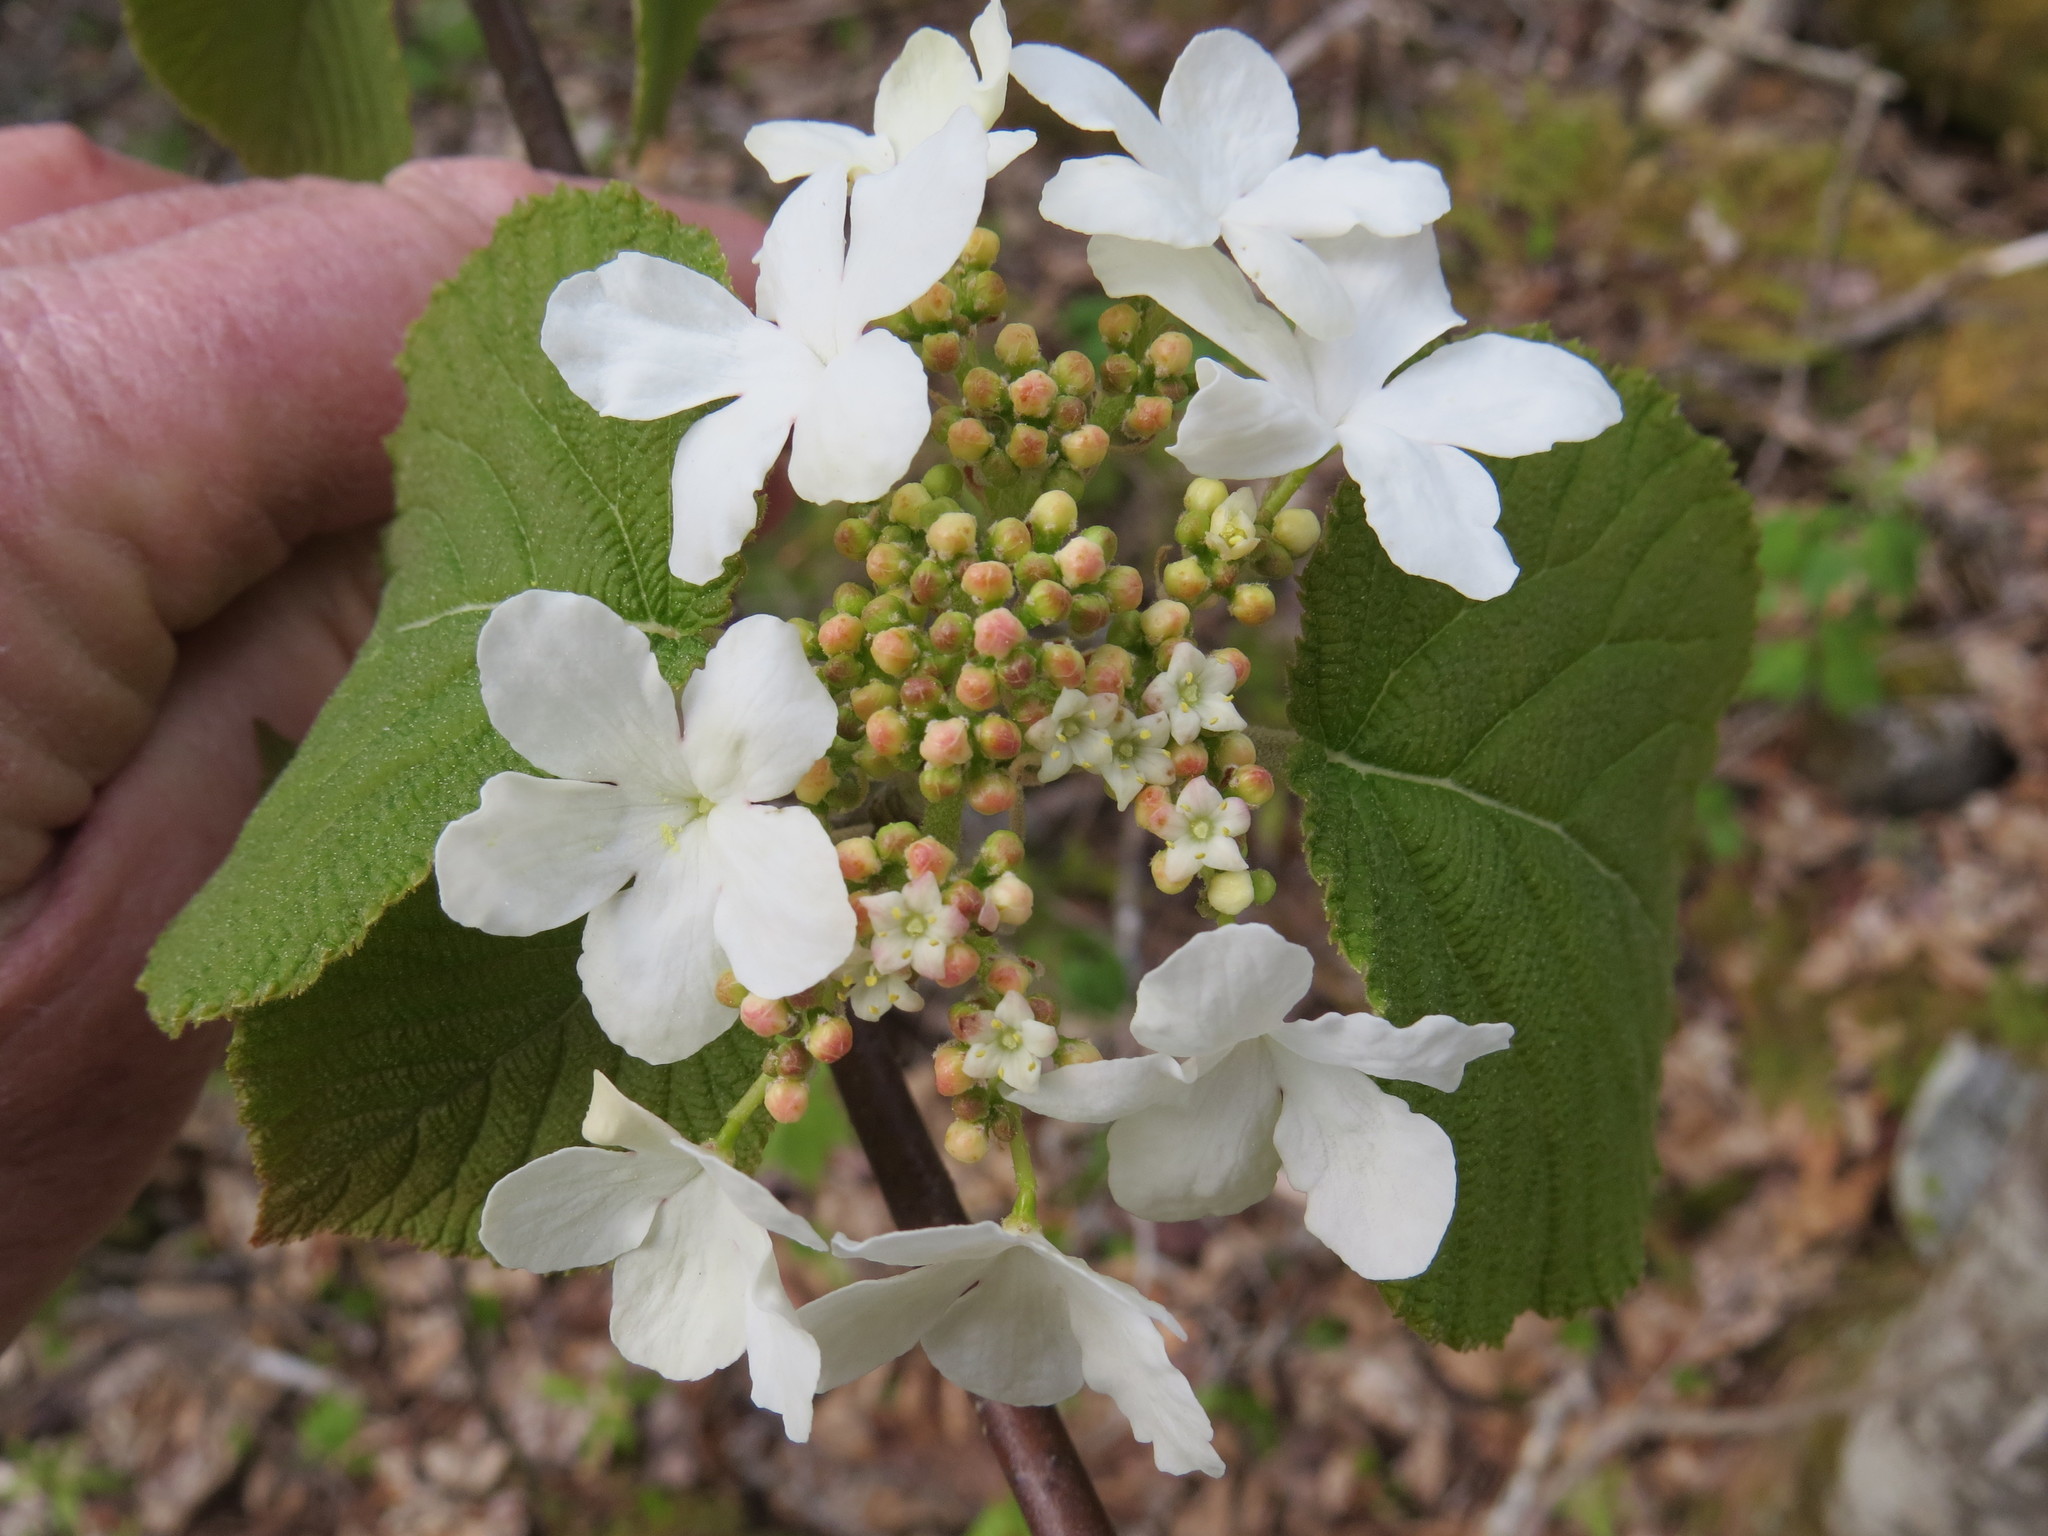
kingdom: Plantae
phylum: Tracheophyta
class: Magnoliopsida
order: Dipsacales
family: Viburnaceae
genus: Viburnum
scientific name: Viburnum lantanoides
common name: Hobblebush
